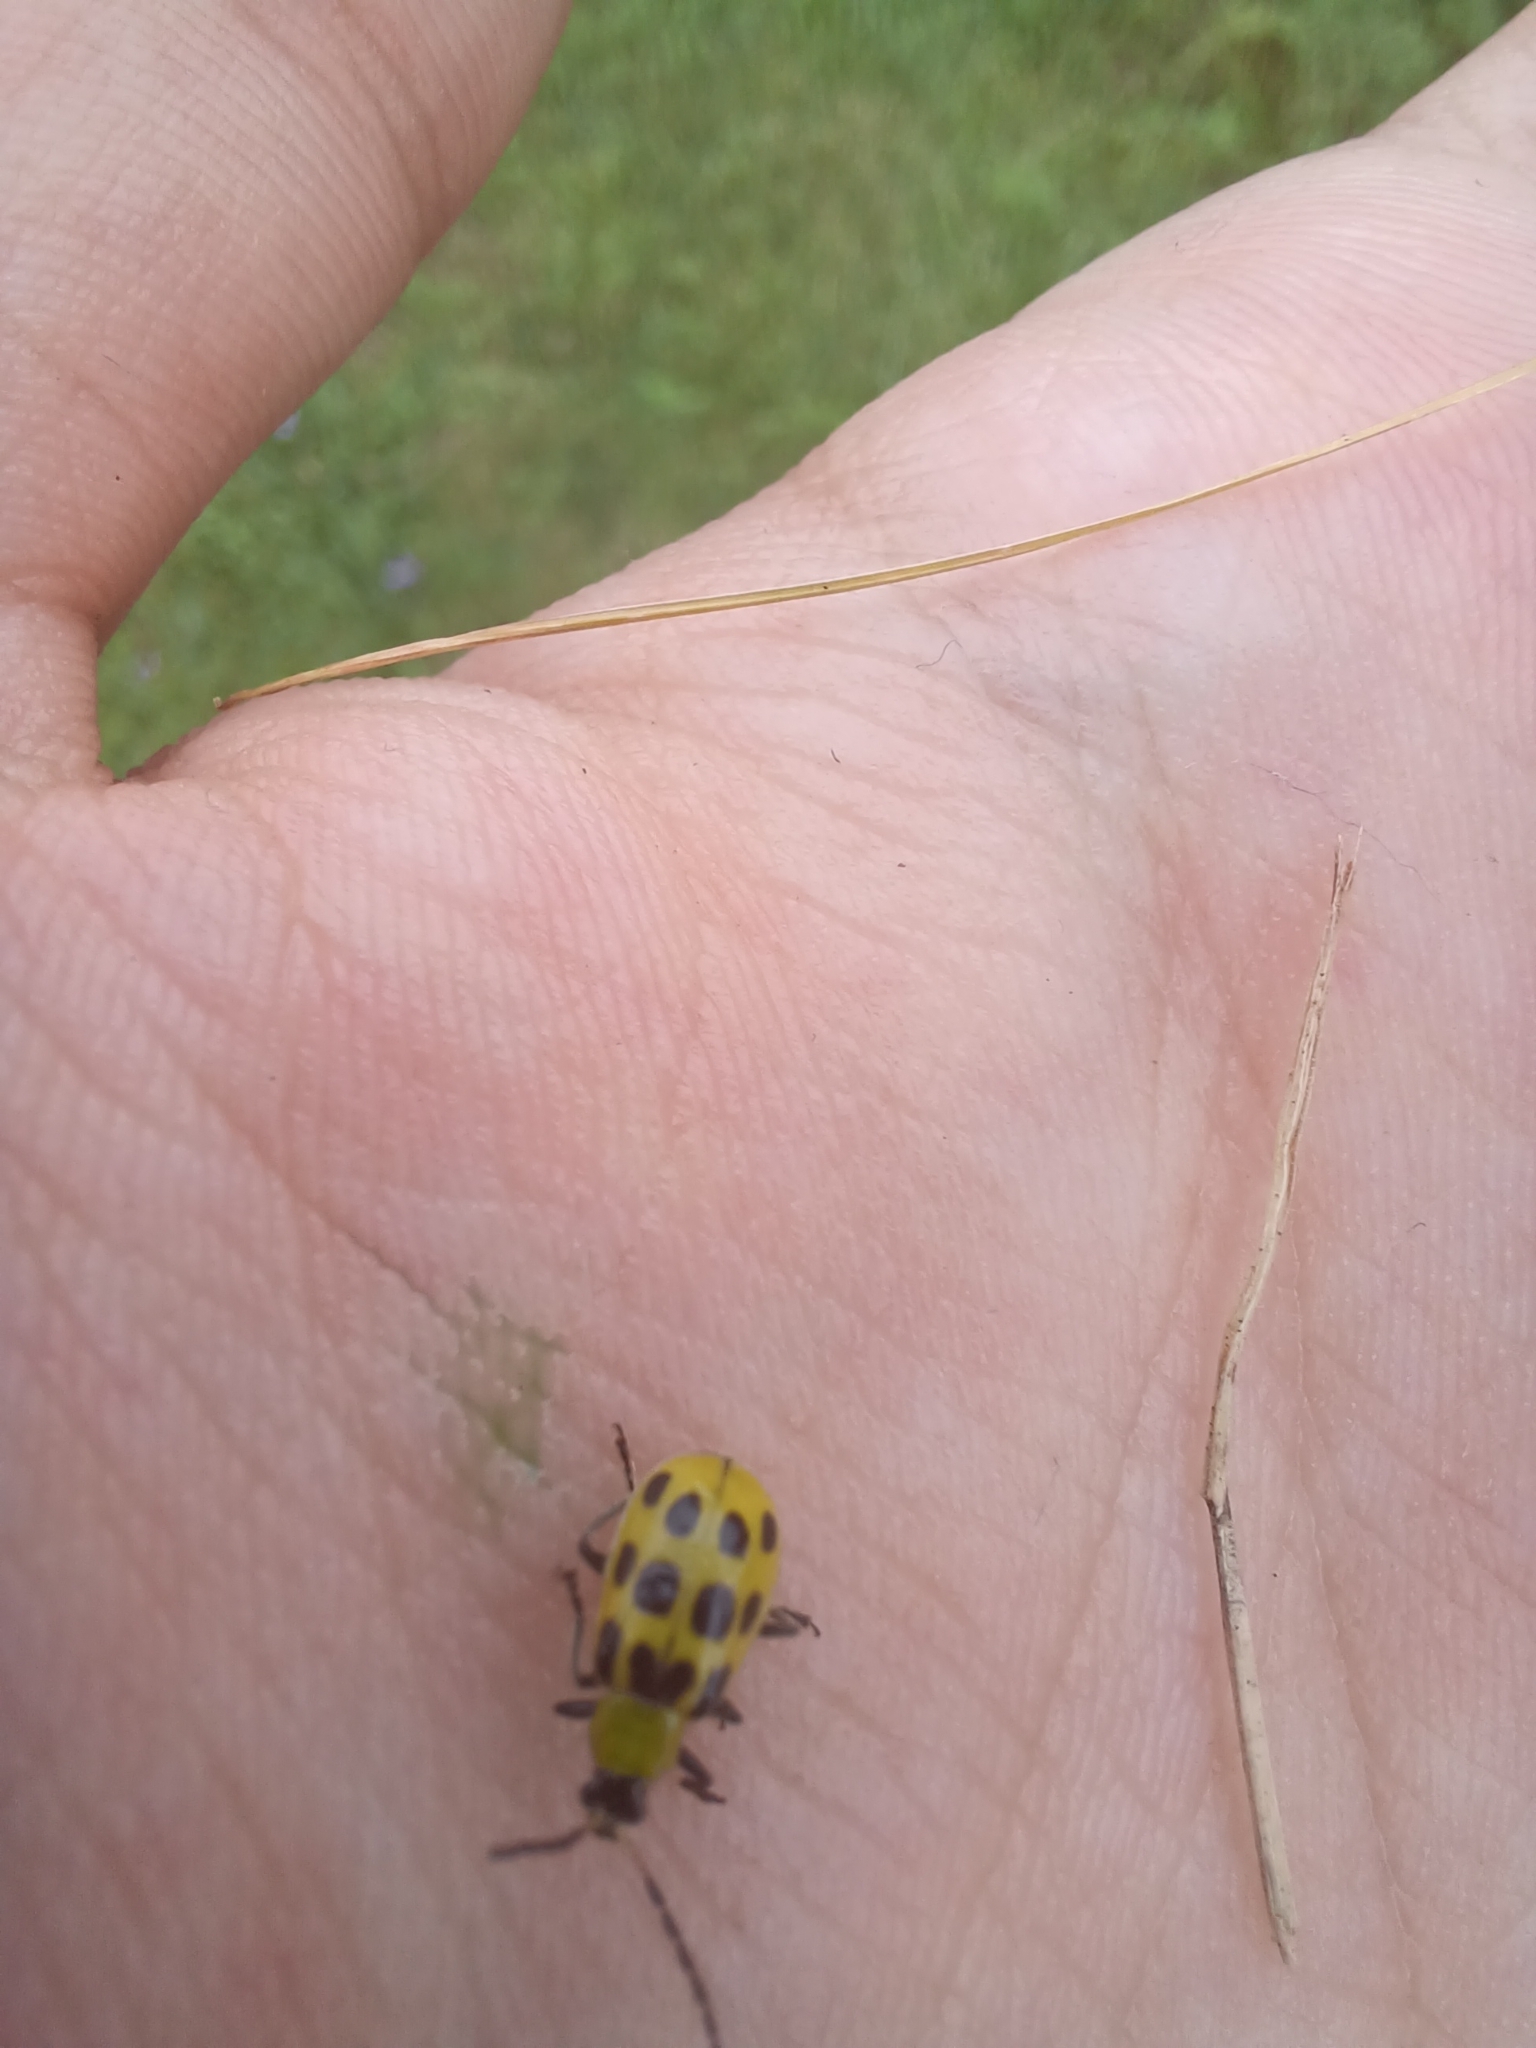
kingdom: Animalia
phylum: Arthropoda
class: Insecta
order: Coleoptera
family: Chrysomelidae
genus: Diabrotica
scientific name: Diabrotica undecimpunctata
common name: Spotted cucumber beetle
